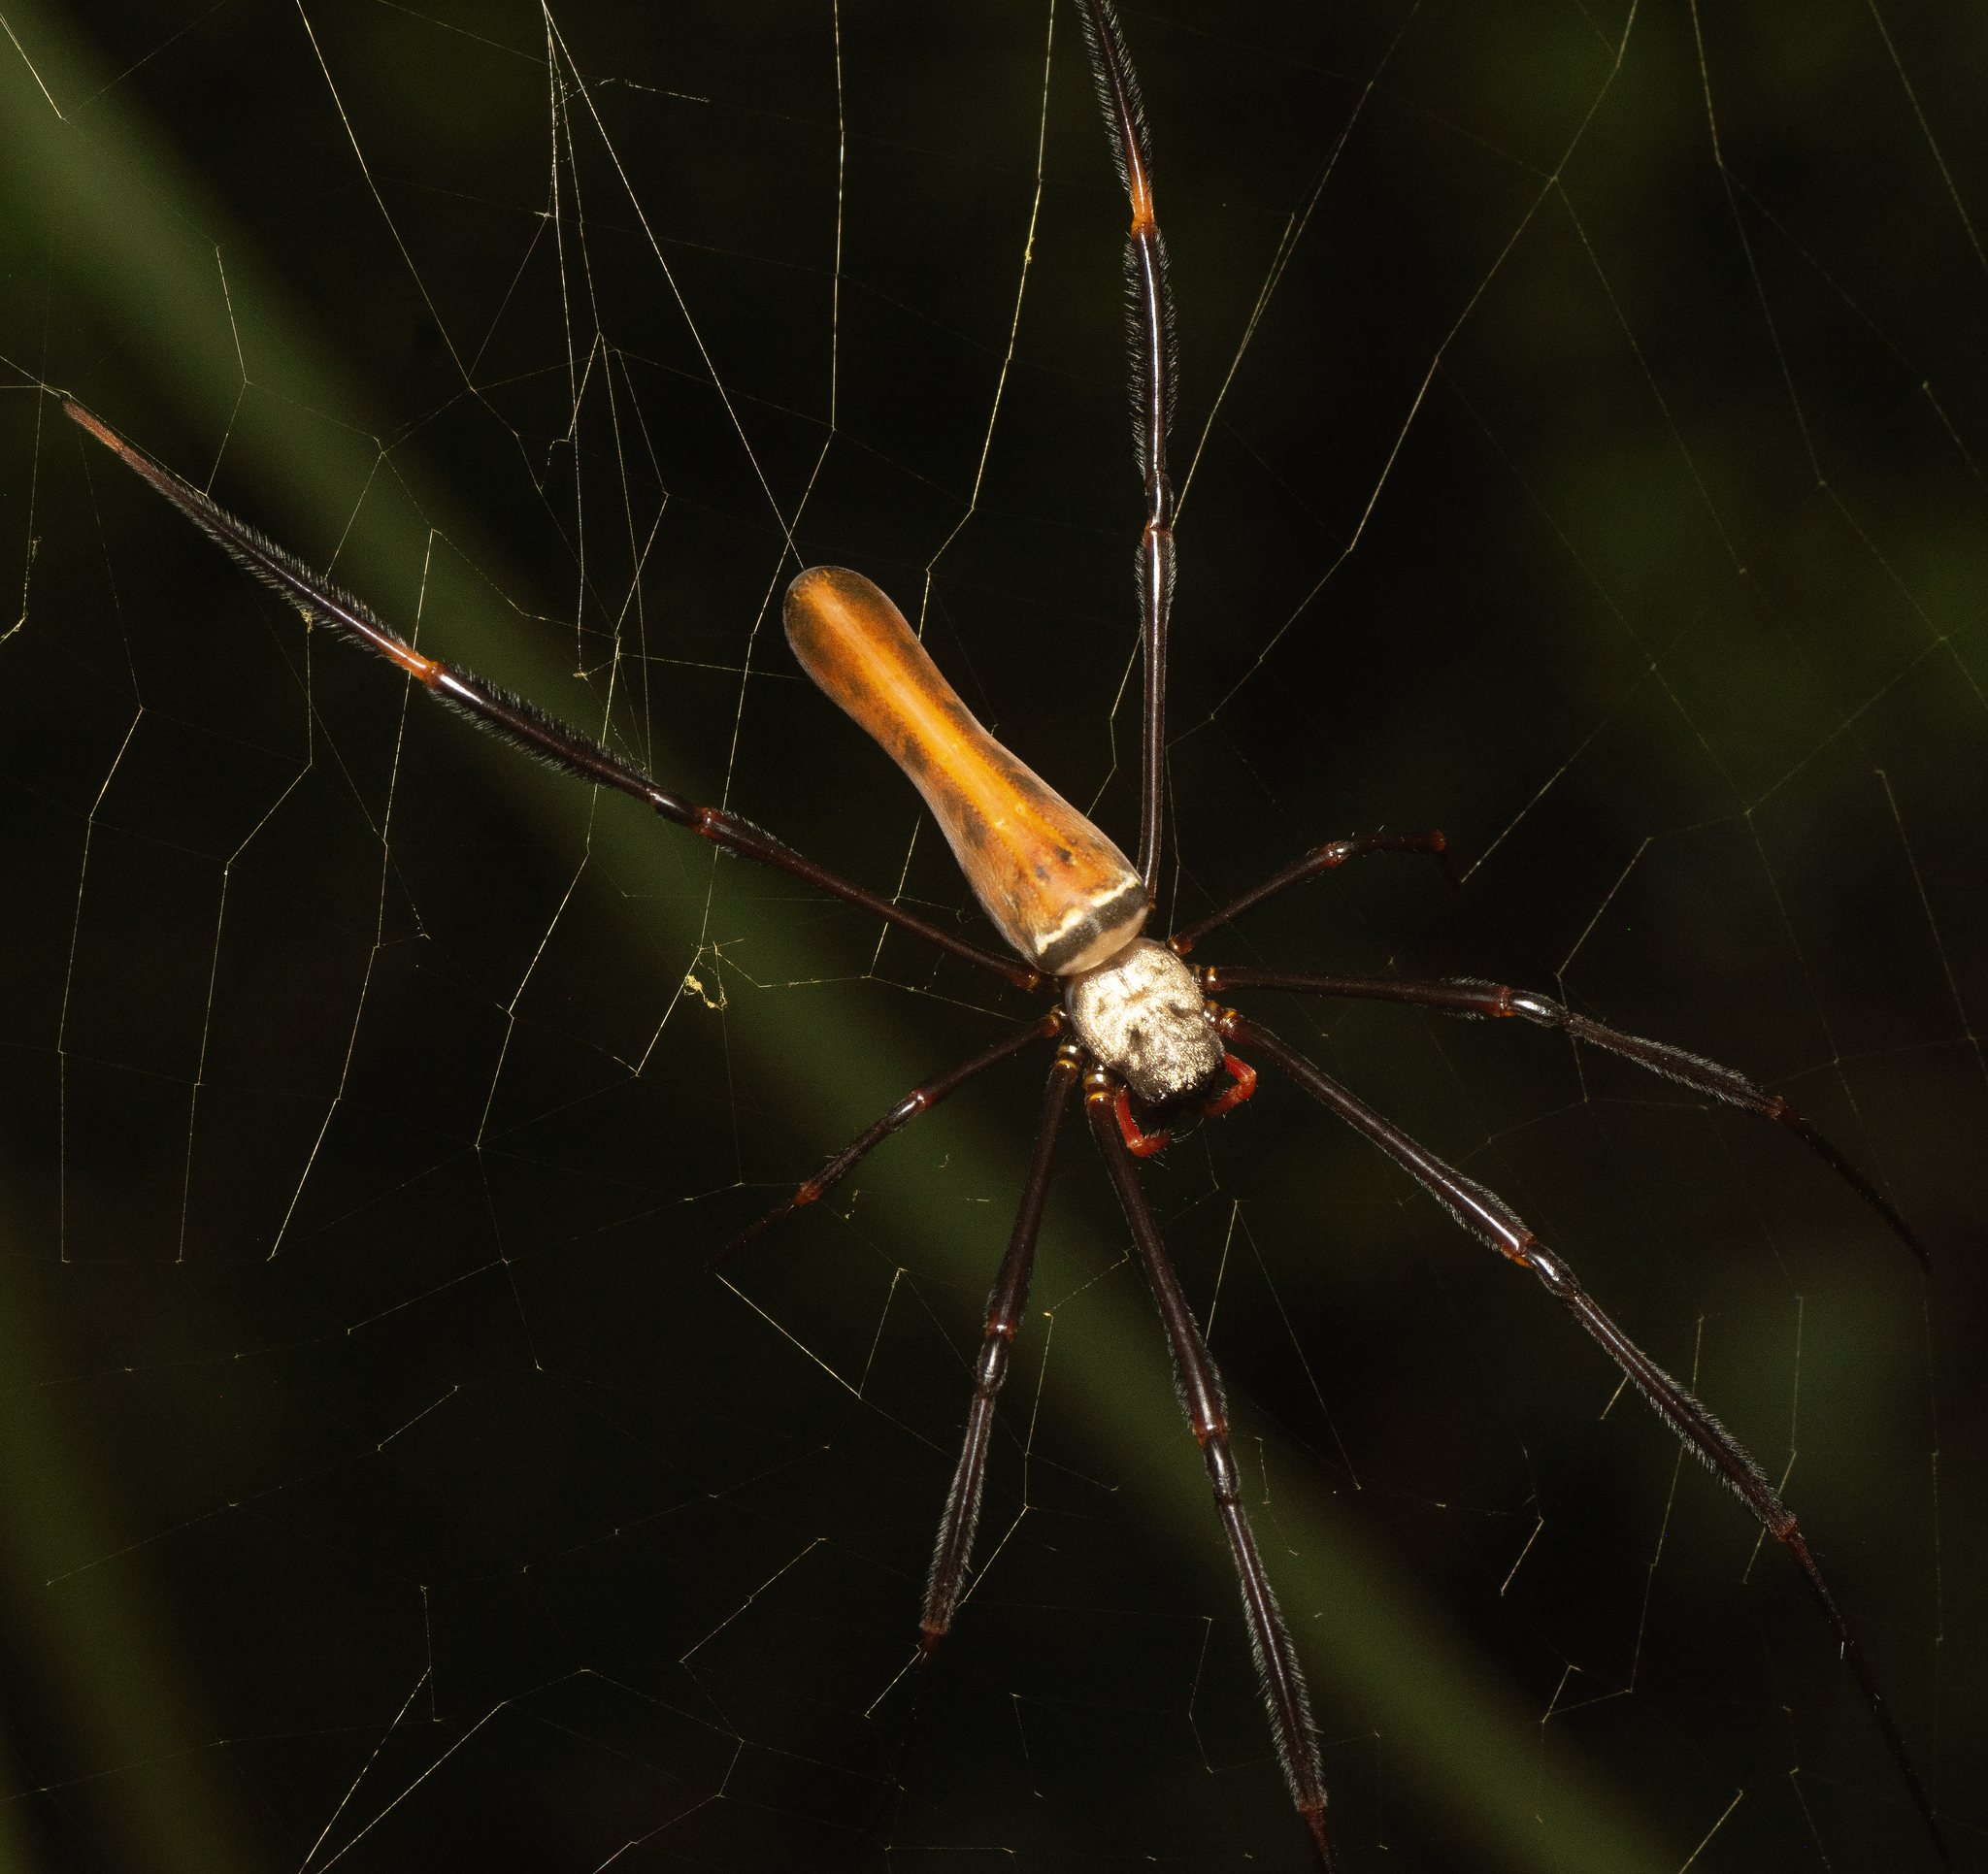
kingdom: Animalia
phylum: Arthropoda
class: Arachnida
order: Araneae
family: Araneidae
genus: Nephila
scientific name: Nephila pilipes
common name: Giant golden orb weaver
